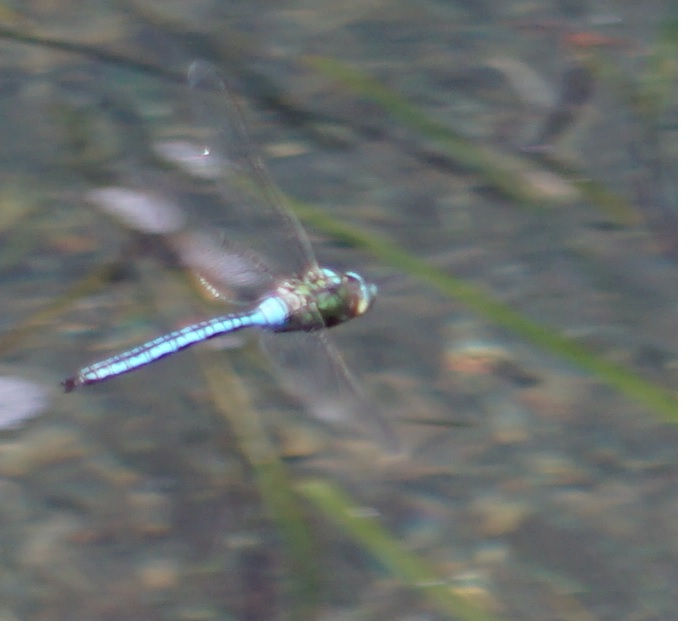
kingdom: Animalia
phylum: Arthropoda
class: Insecta
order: Odonata
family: Aeshnidae
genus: Anax
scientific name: Anax imperator
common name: Emperor dragonfly
